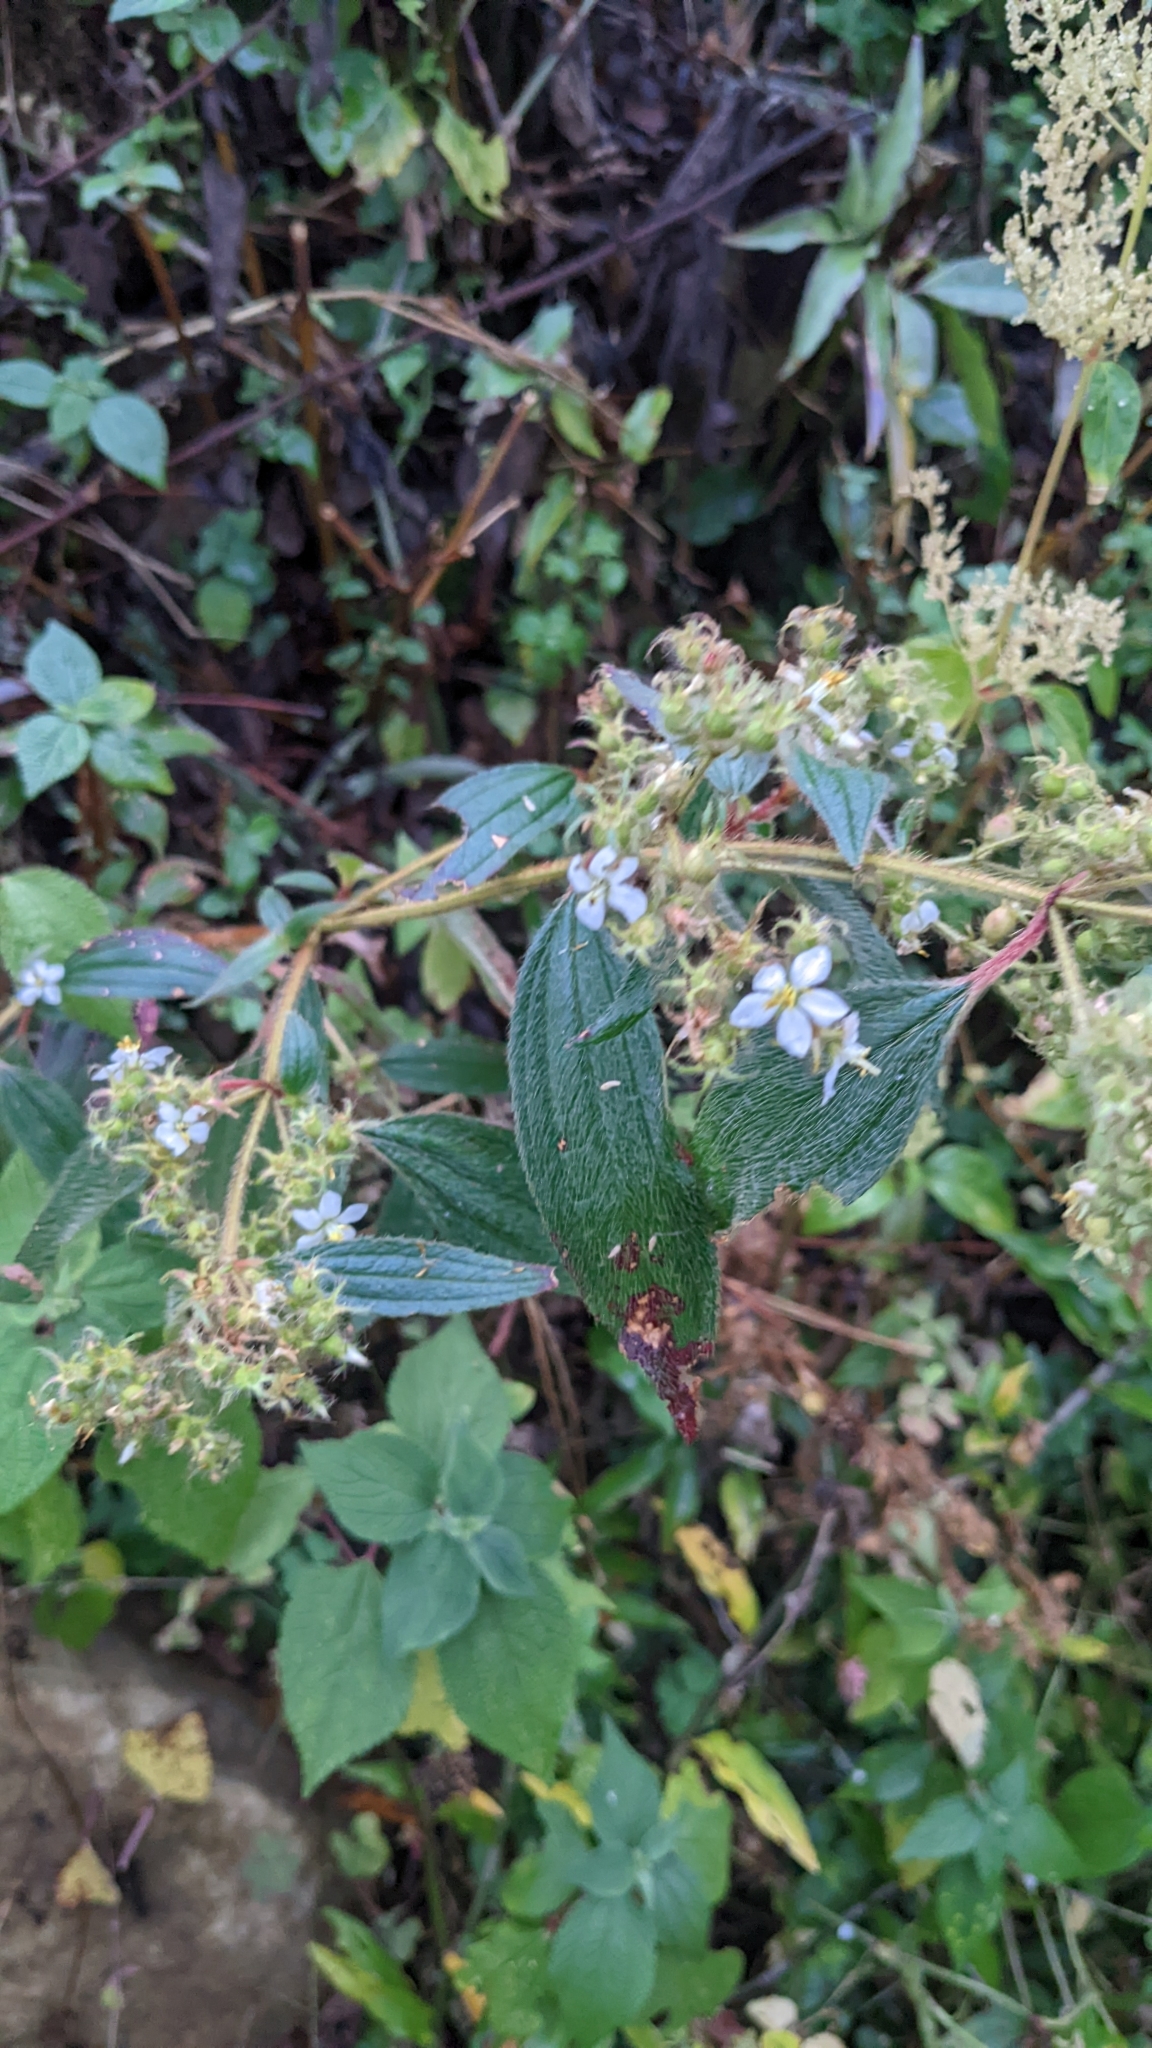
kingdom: Plantae
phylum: Tracheophyta
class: Magnoliopsida
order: Myrtales
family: Melastomataceae
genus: Chaetogastra
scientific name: Chaetogastra longifolia
